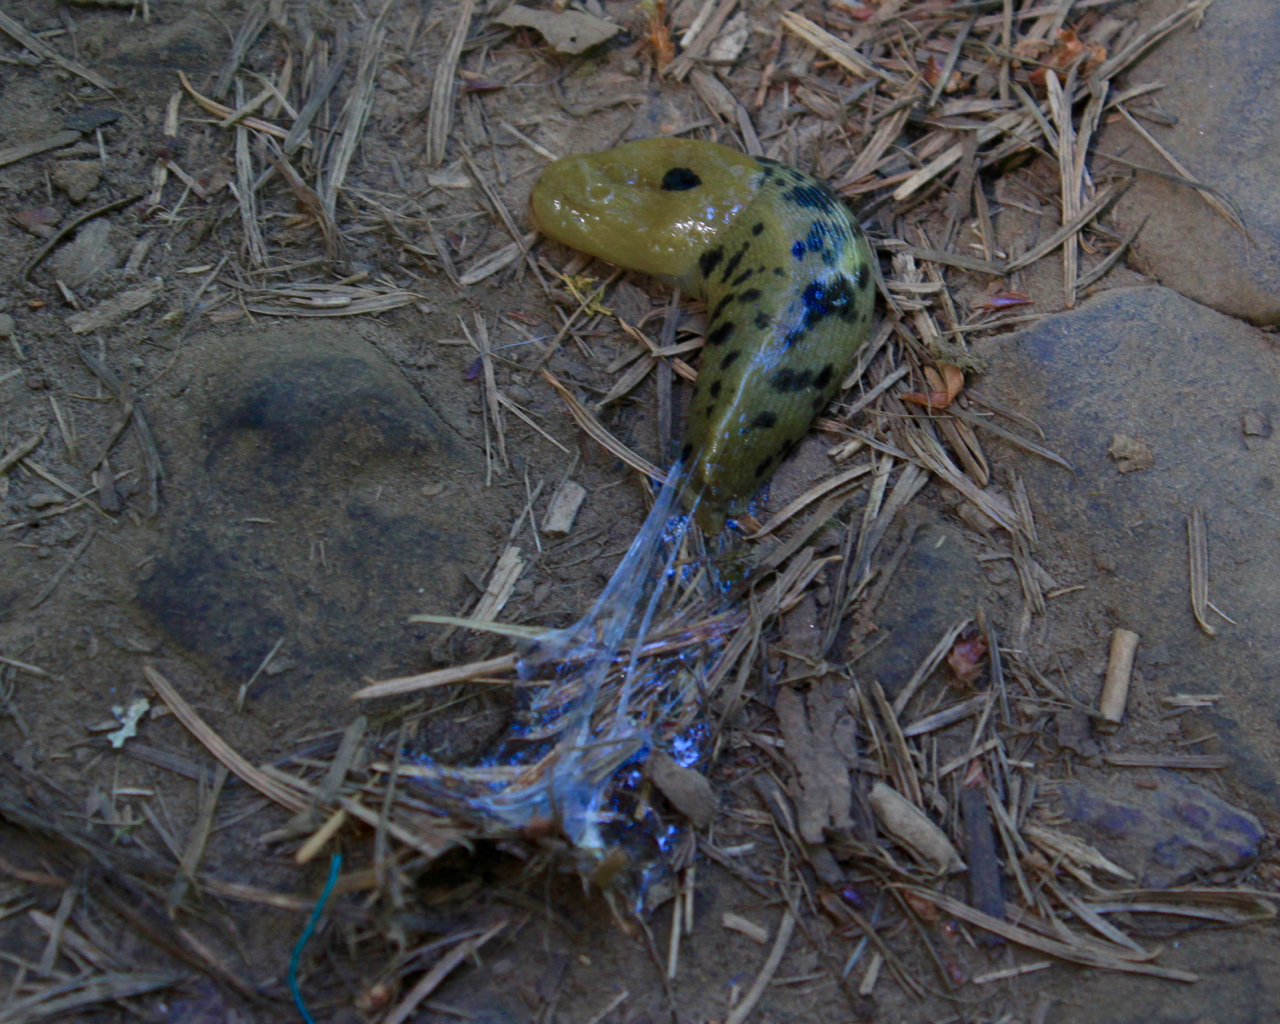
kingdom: Animalia
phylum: Mollusca
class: Gastropoda
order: Stylommatophora
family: Ariolimacidae
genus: Ariolimax
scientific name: Ariolimax columbianus
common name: Pacific banana slug
